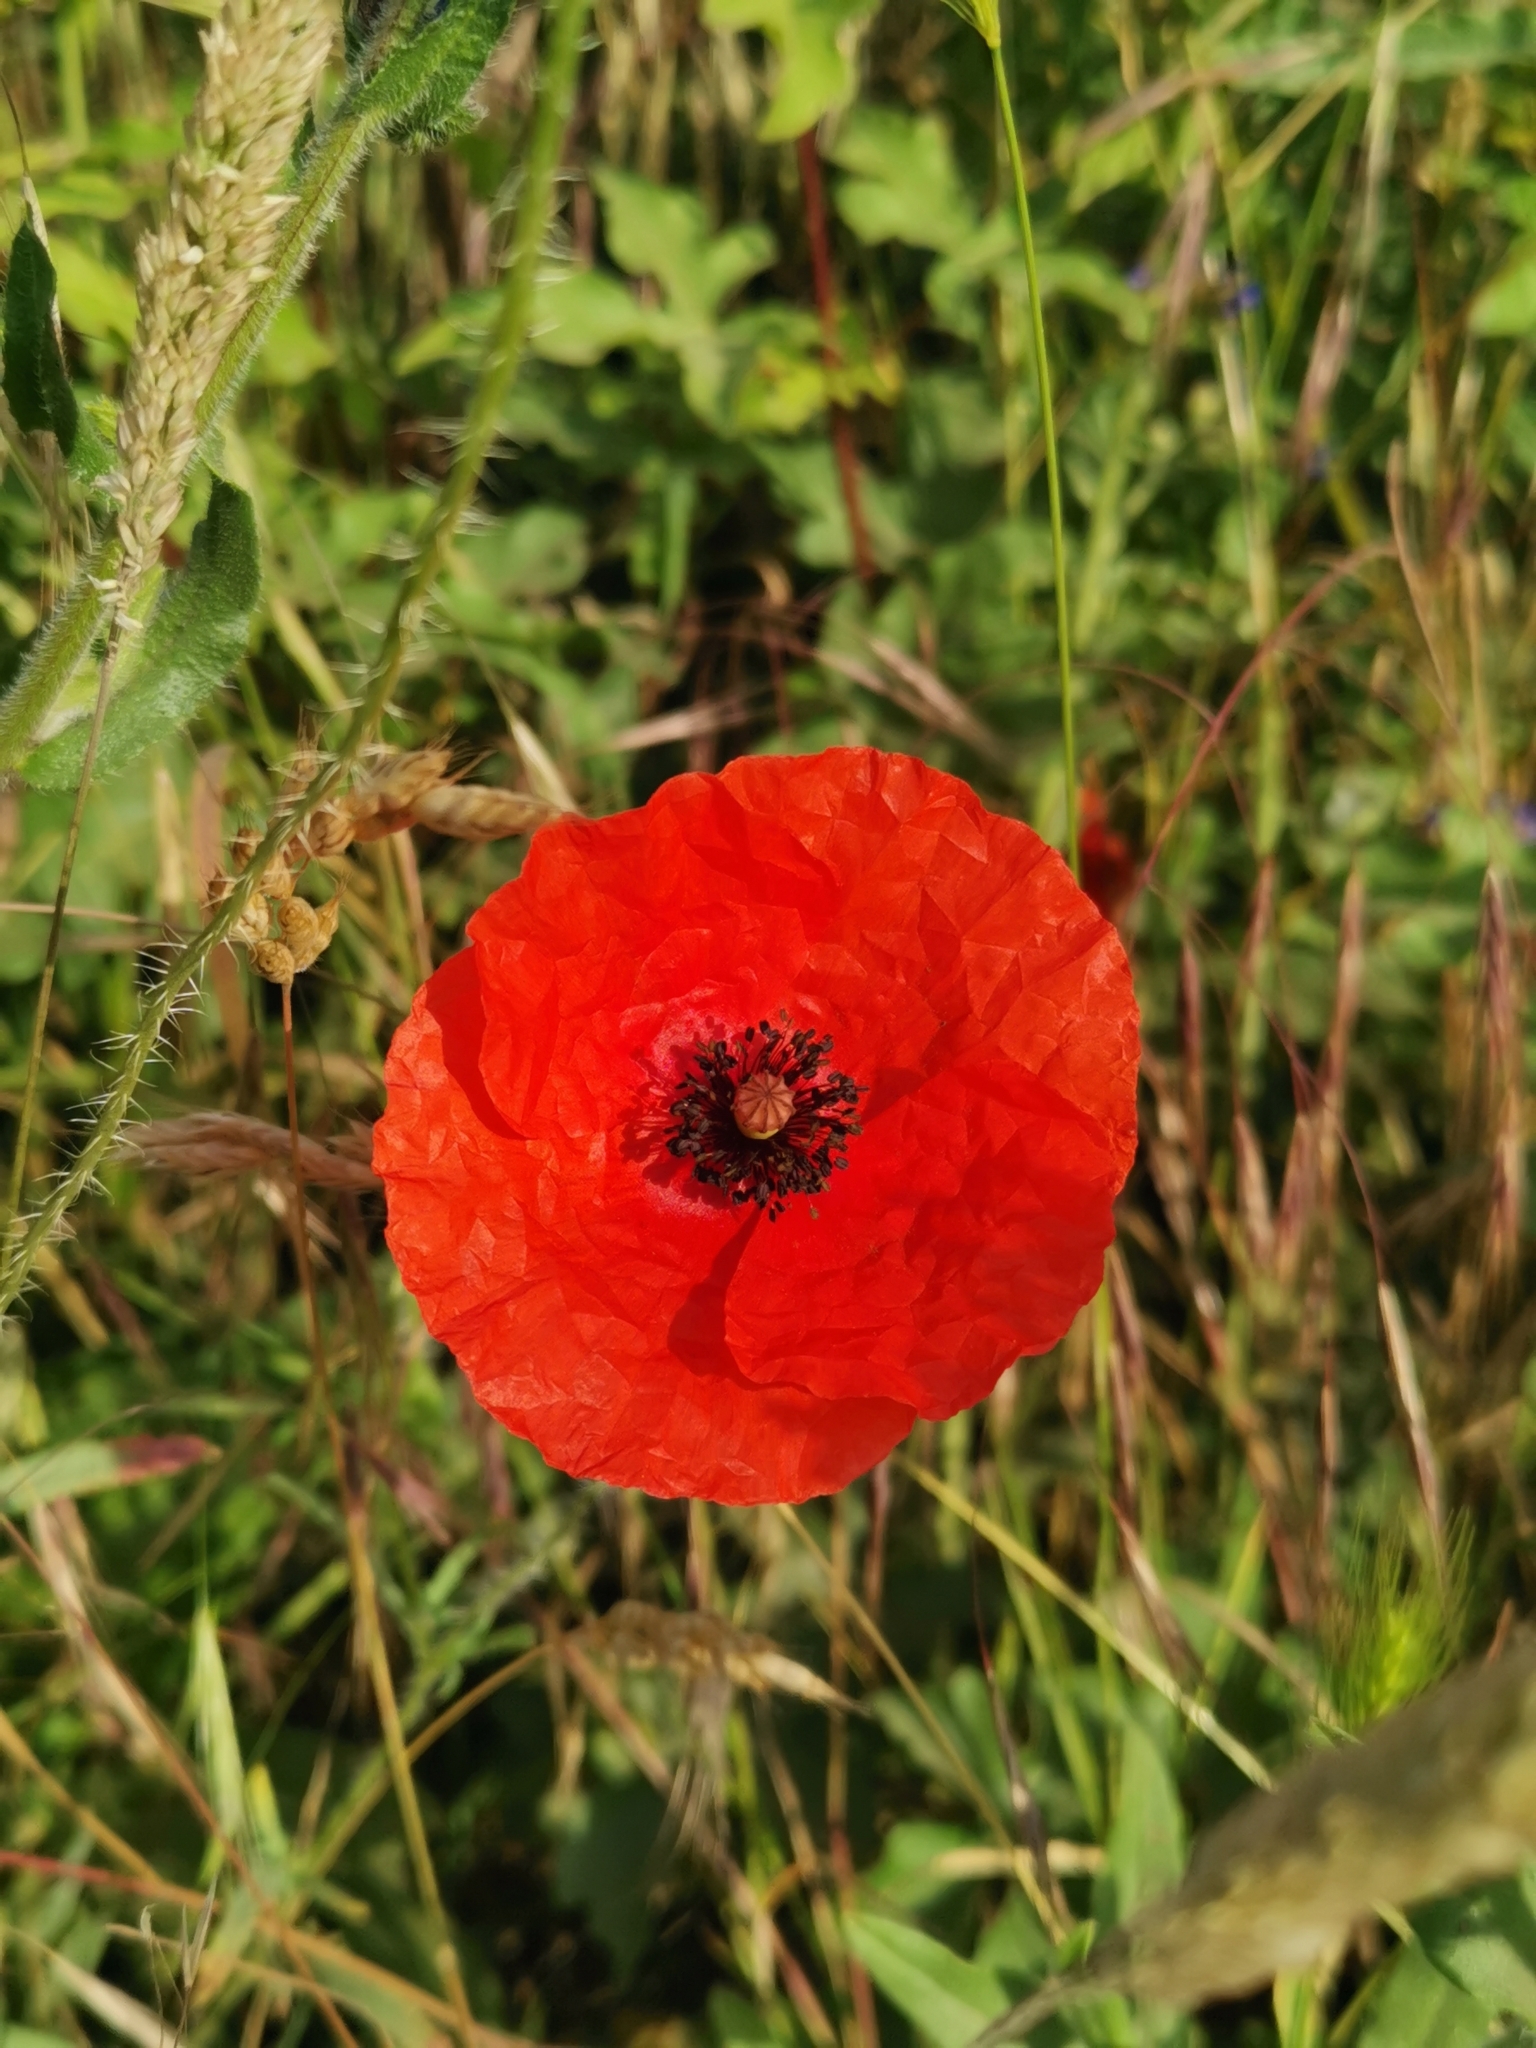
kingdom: Plantae
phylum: Tracheophyta
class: Magnoliopsida
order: Ranunculales
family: Papaveraceae
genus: Papaver
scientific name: Papaver rhoeas
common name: Corn poppy
